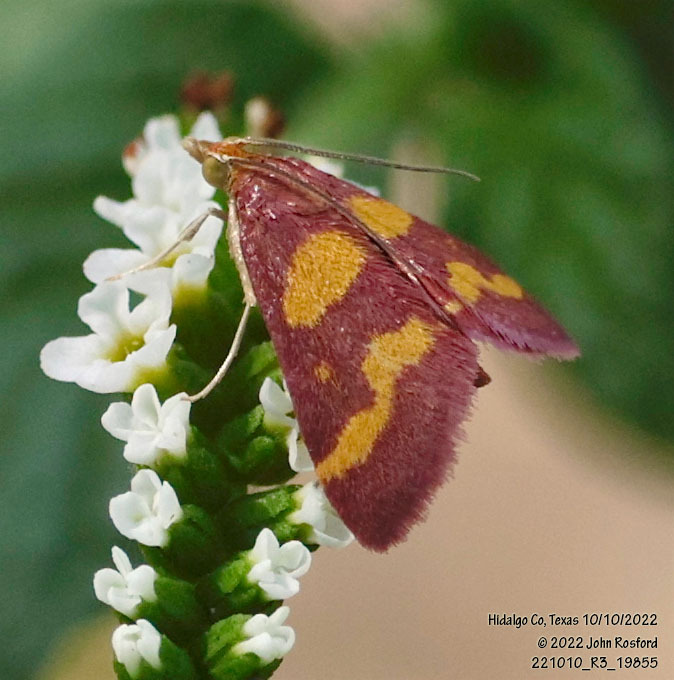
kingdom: Animalia
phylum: Arthropoda
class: Insecta
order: Lepidoptera
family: Crambidae
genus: Pyrausta
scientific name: Pyrausta tyralis
